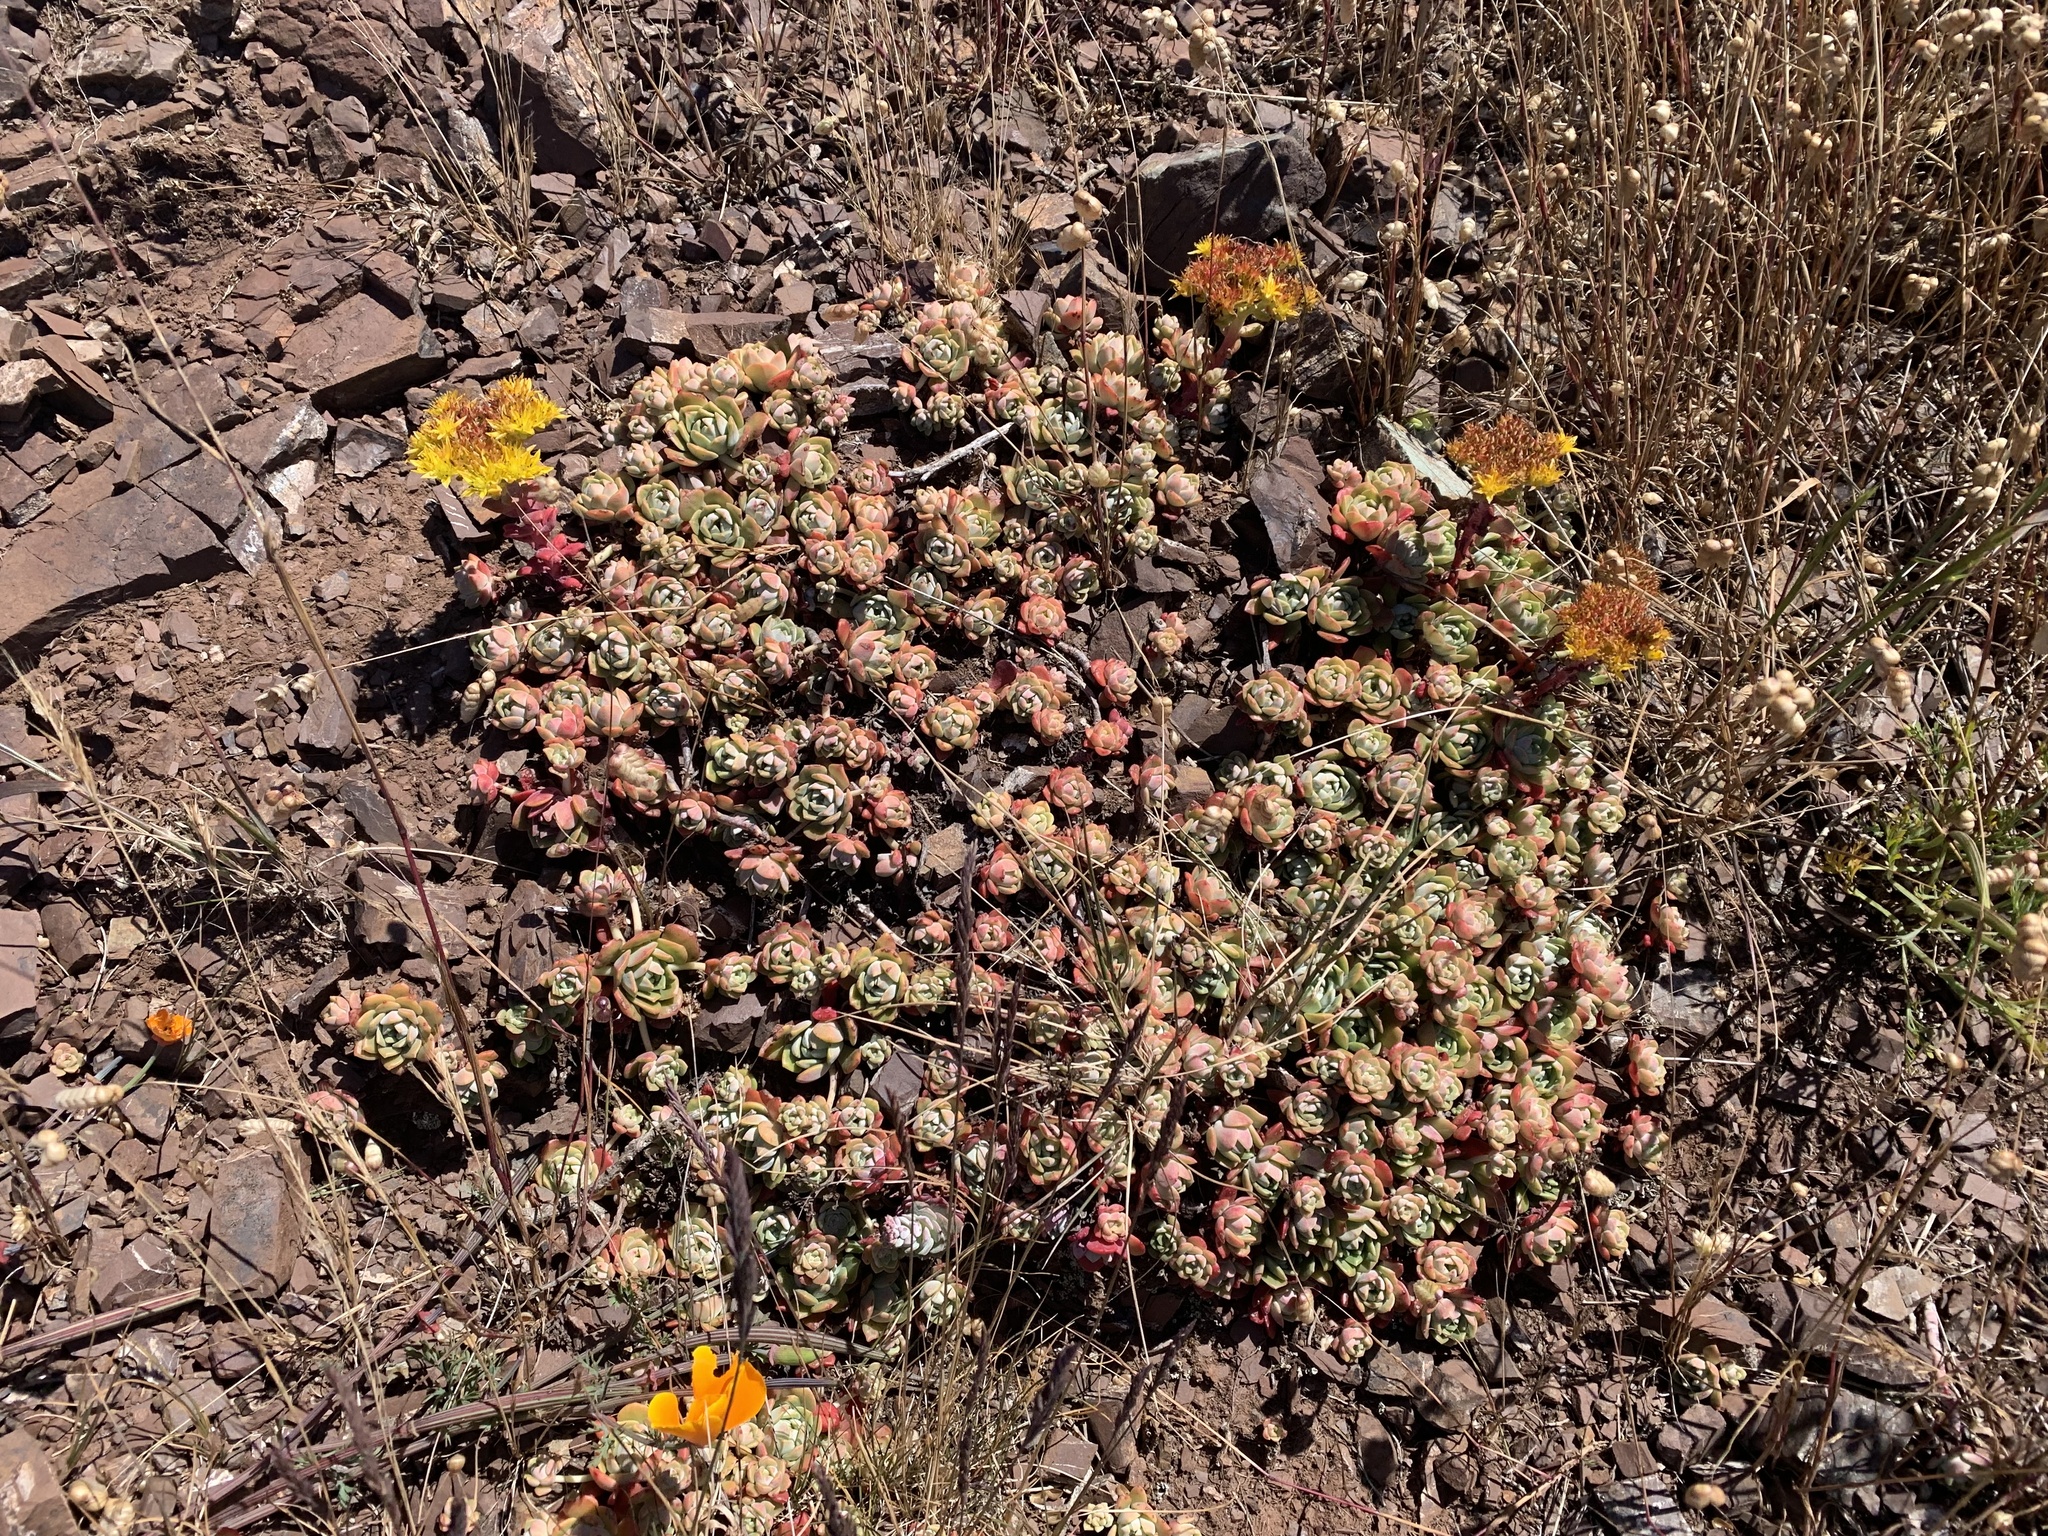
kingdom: Plantae
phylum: Tracheophyta
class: Magnoliopsida
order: Saxifragales
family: Crassulaceae
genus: Sedum
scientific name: Sedum spathulifolium
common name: Colorado stonecrop
